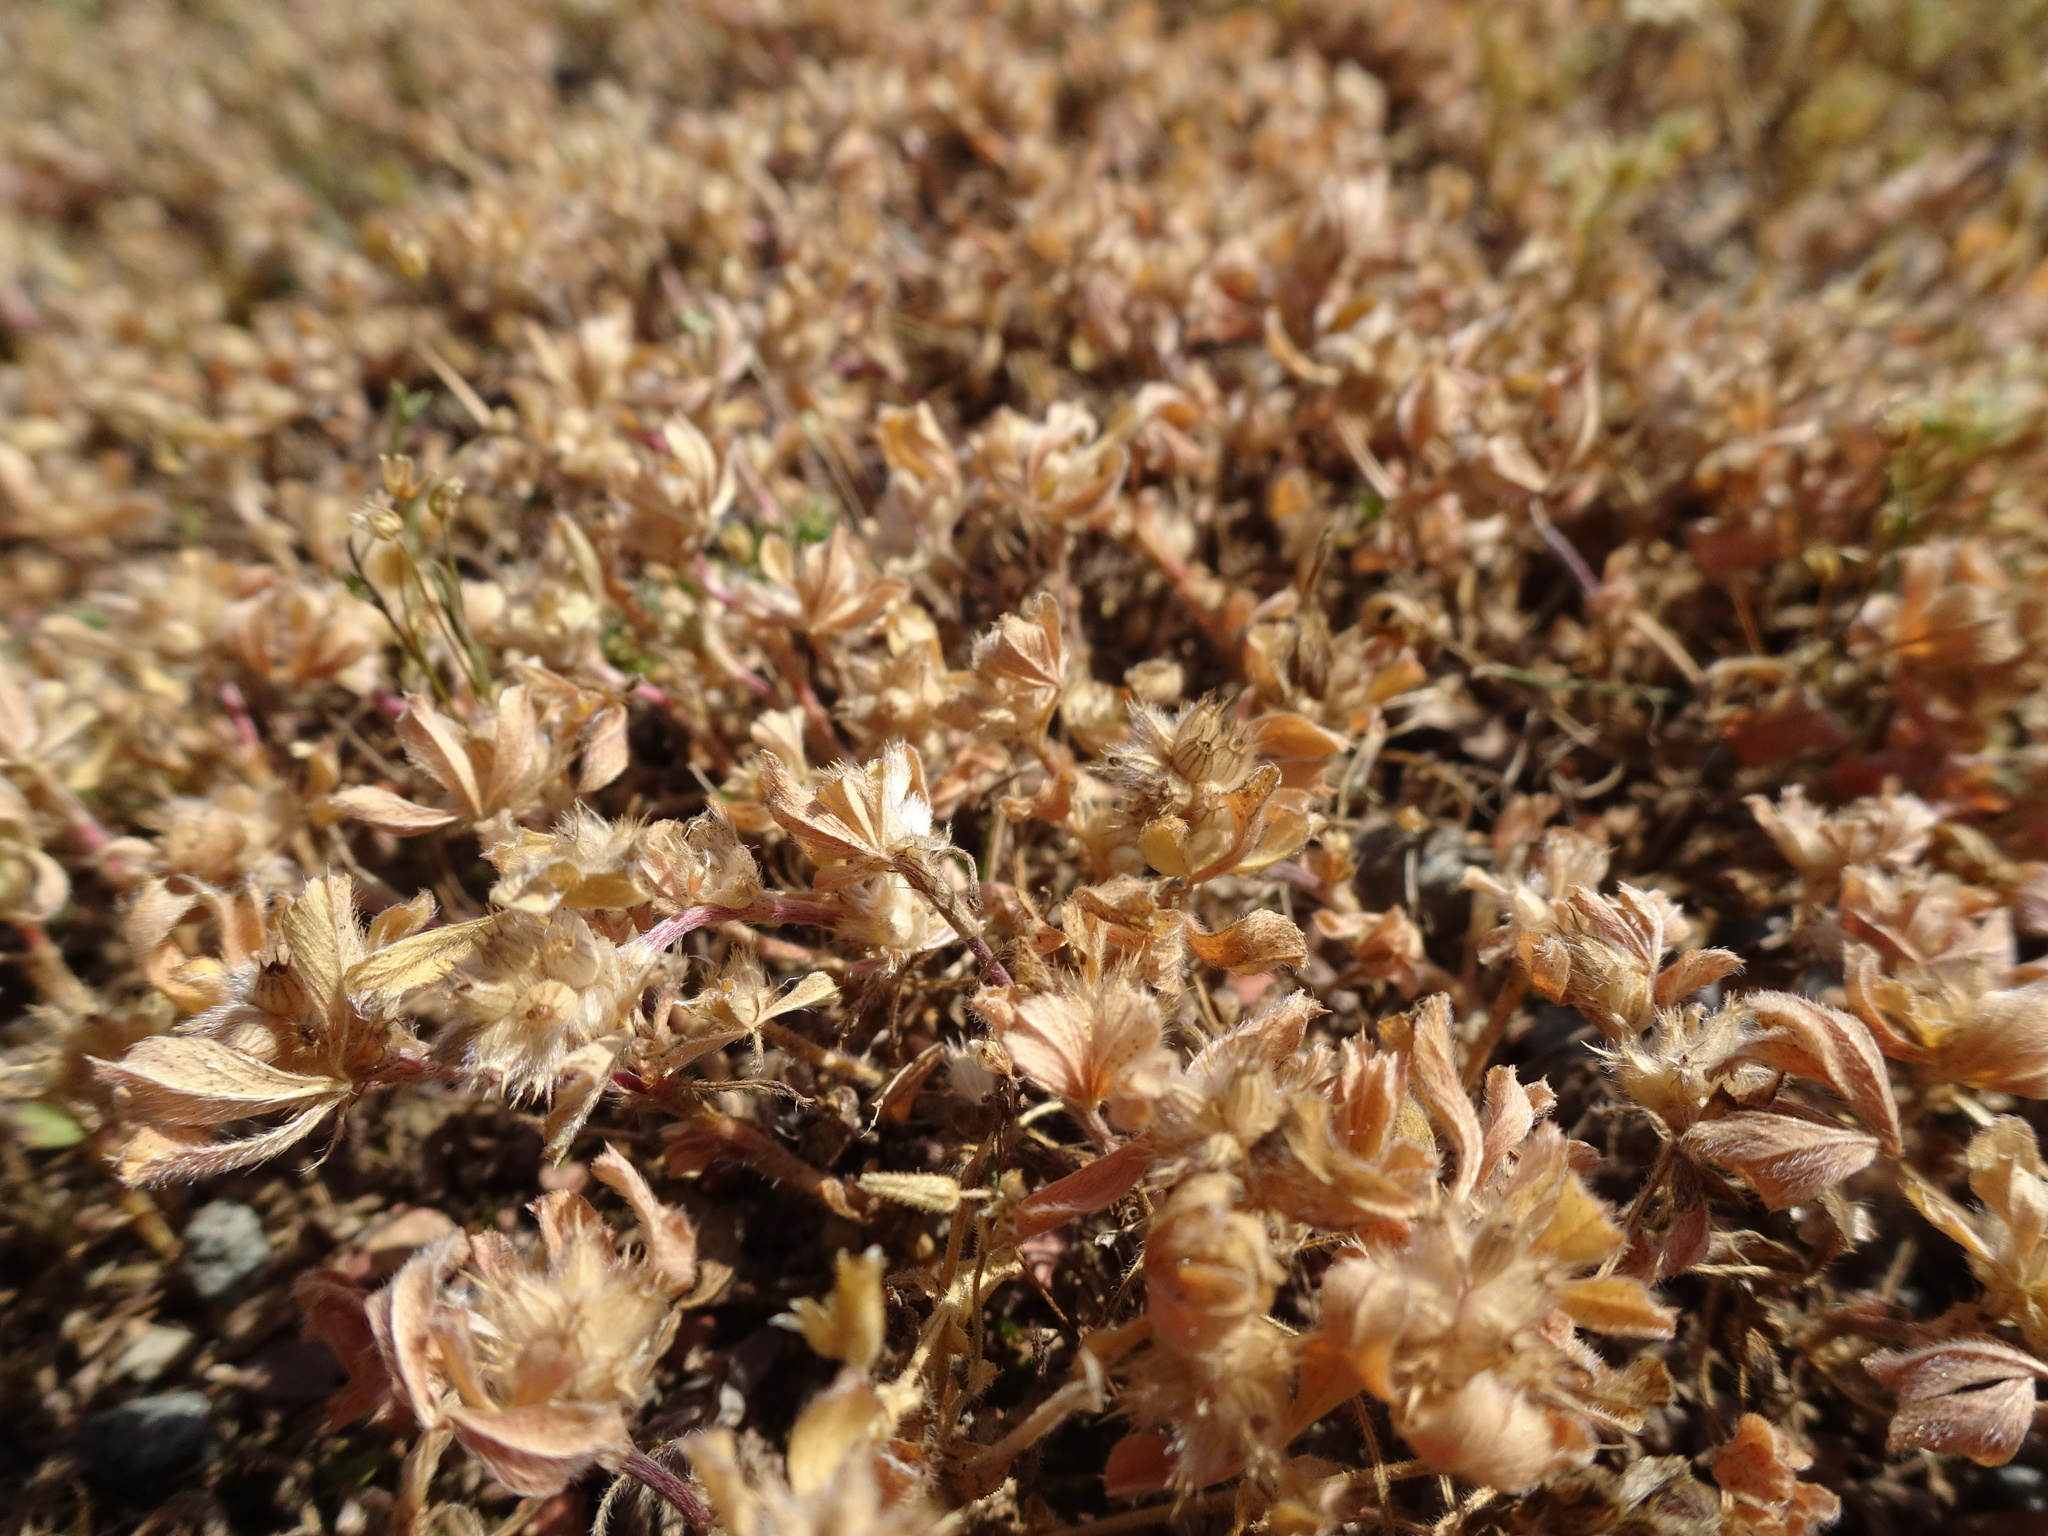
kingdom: Plantae
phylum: Tracheophyta
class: Magnoliopsida
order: Fabales
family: Fabaceae
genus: Trifolium
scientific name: Trifolium striatum
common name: Knotted clover
